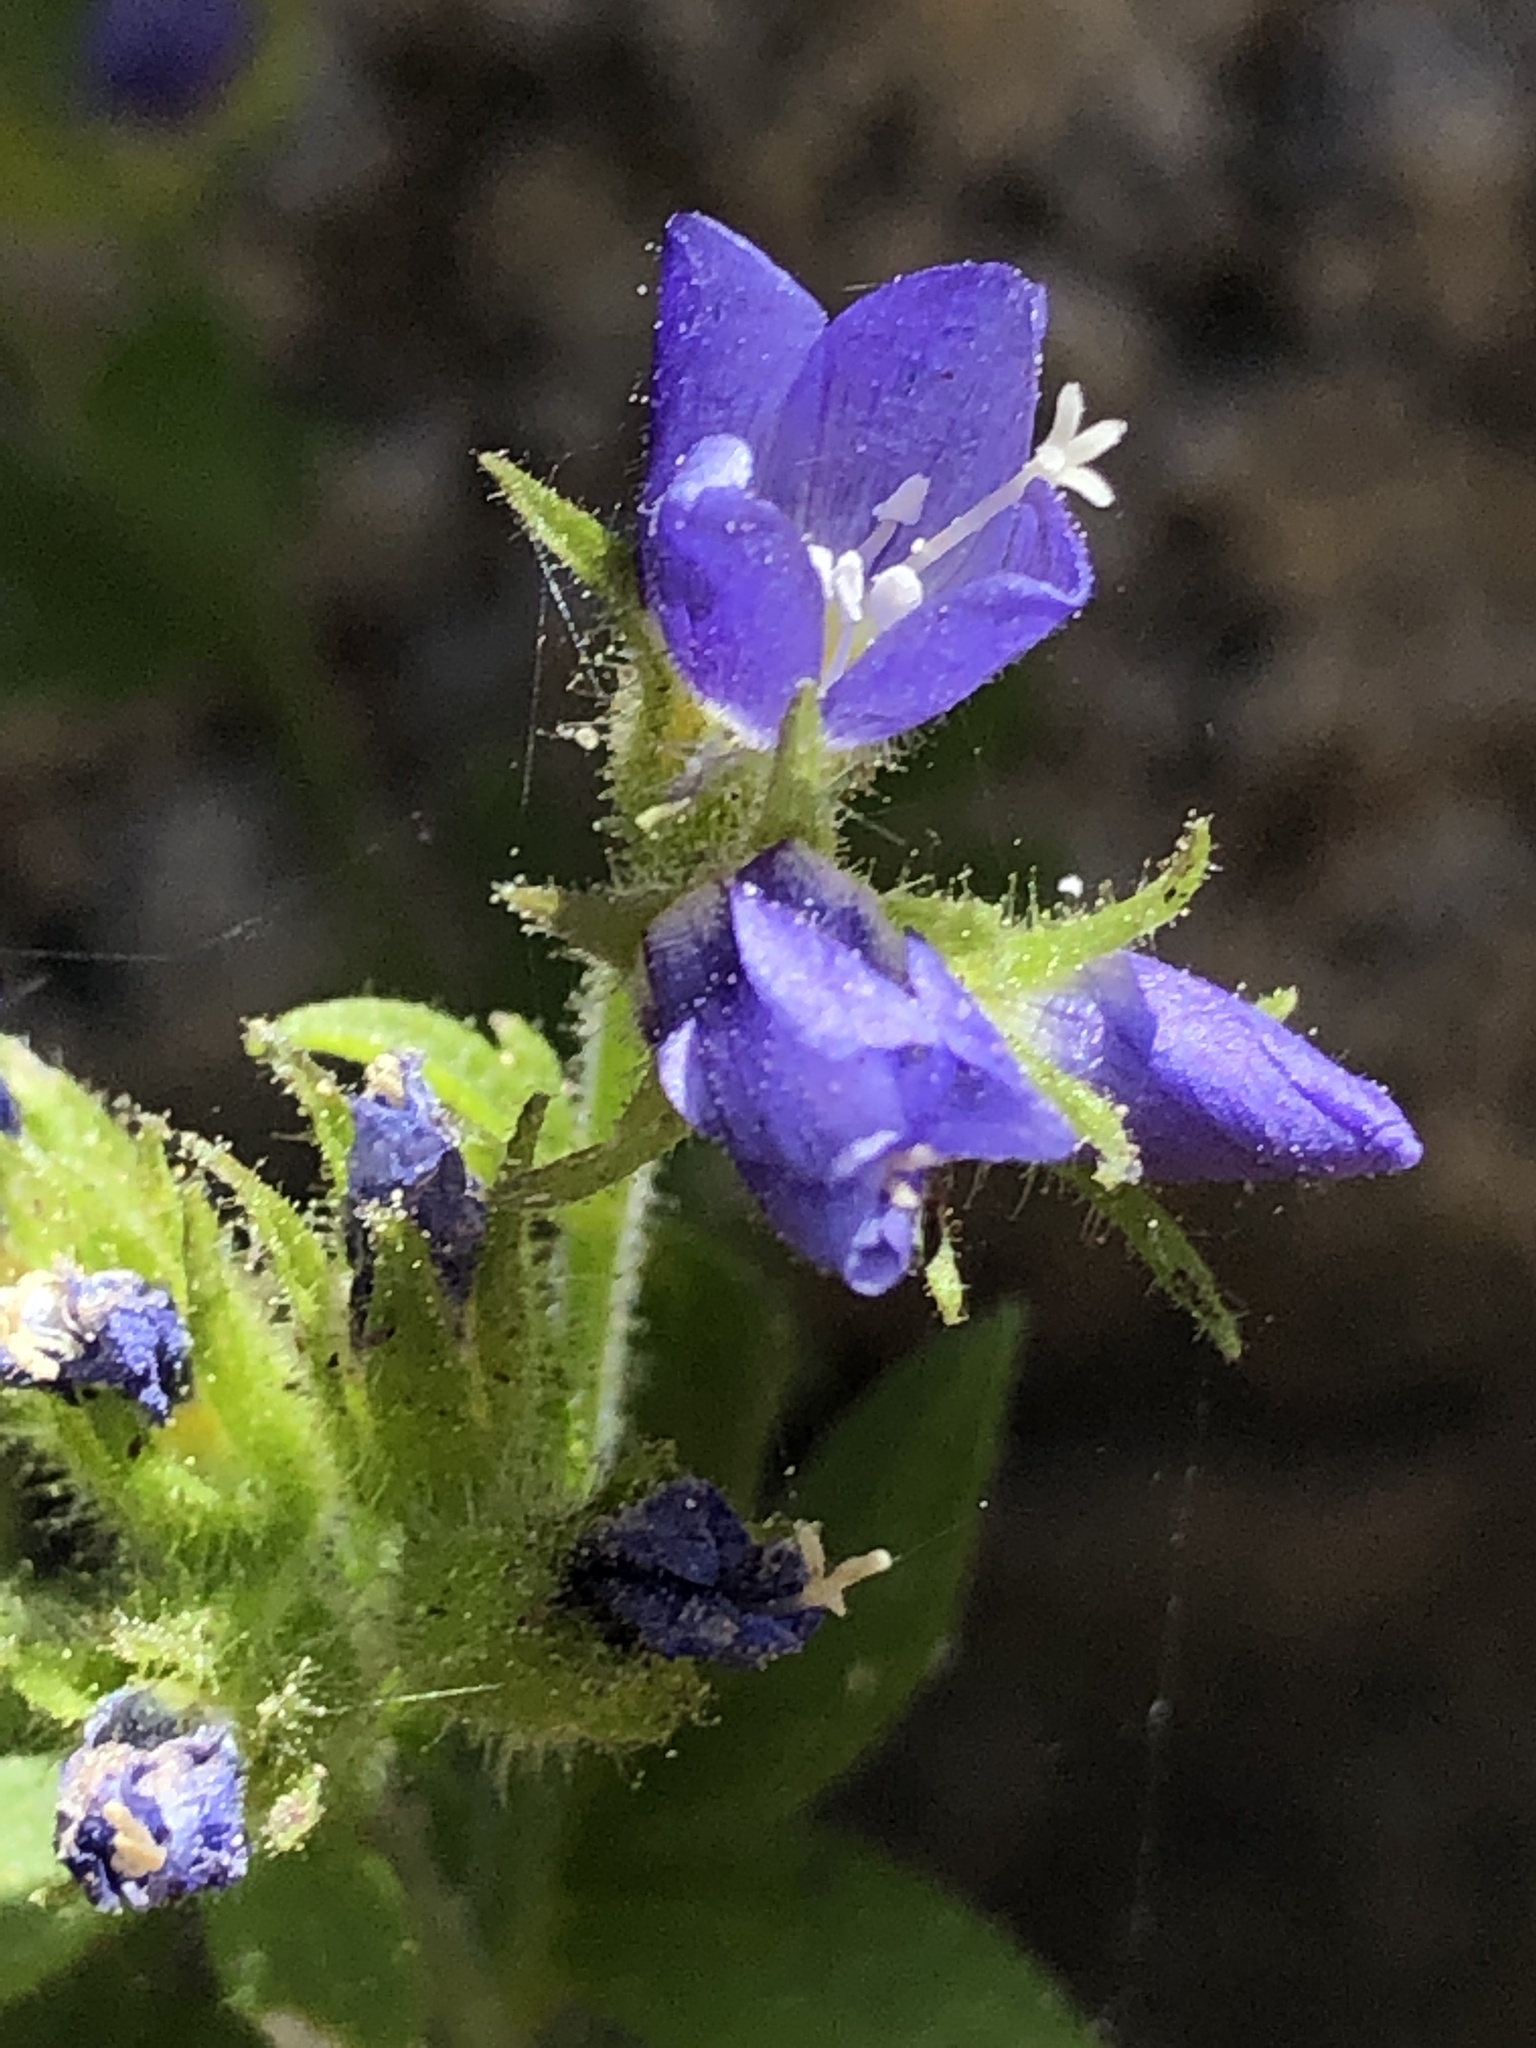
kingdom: Plantae
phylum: Tracheophyta
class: Magnoliopsida
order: Ericales
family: Polemoniaceae
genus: Polemonium
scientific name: Polemonium californicum
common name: California jacob's ladder
